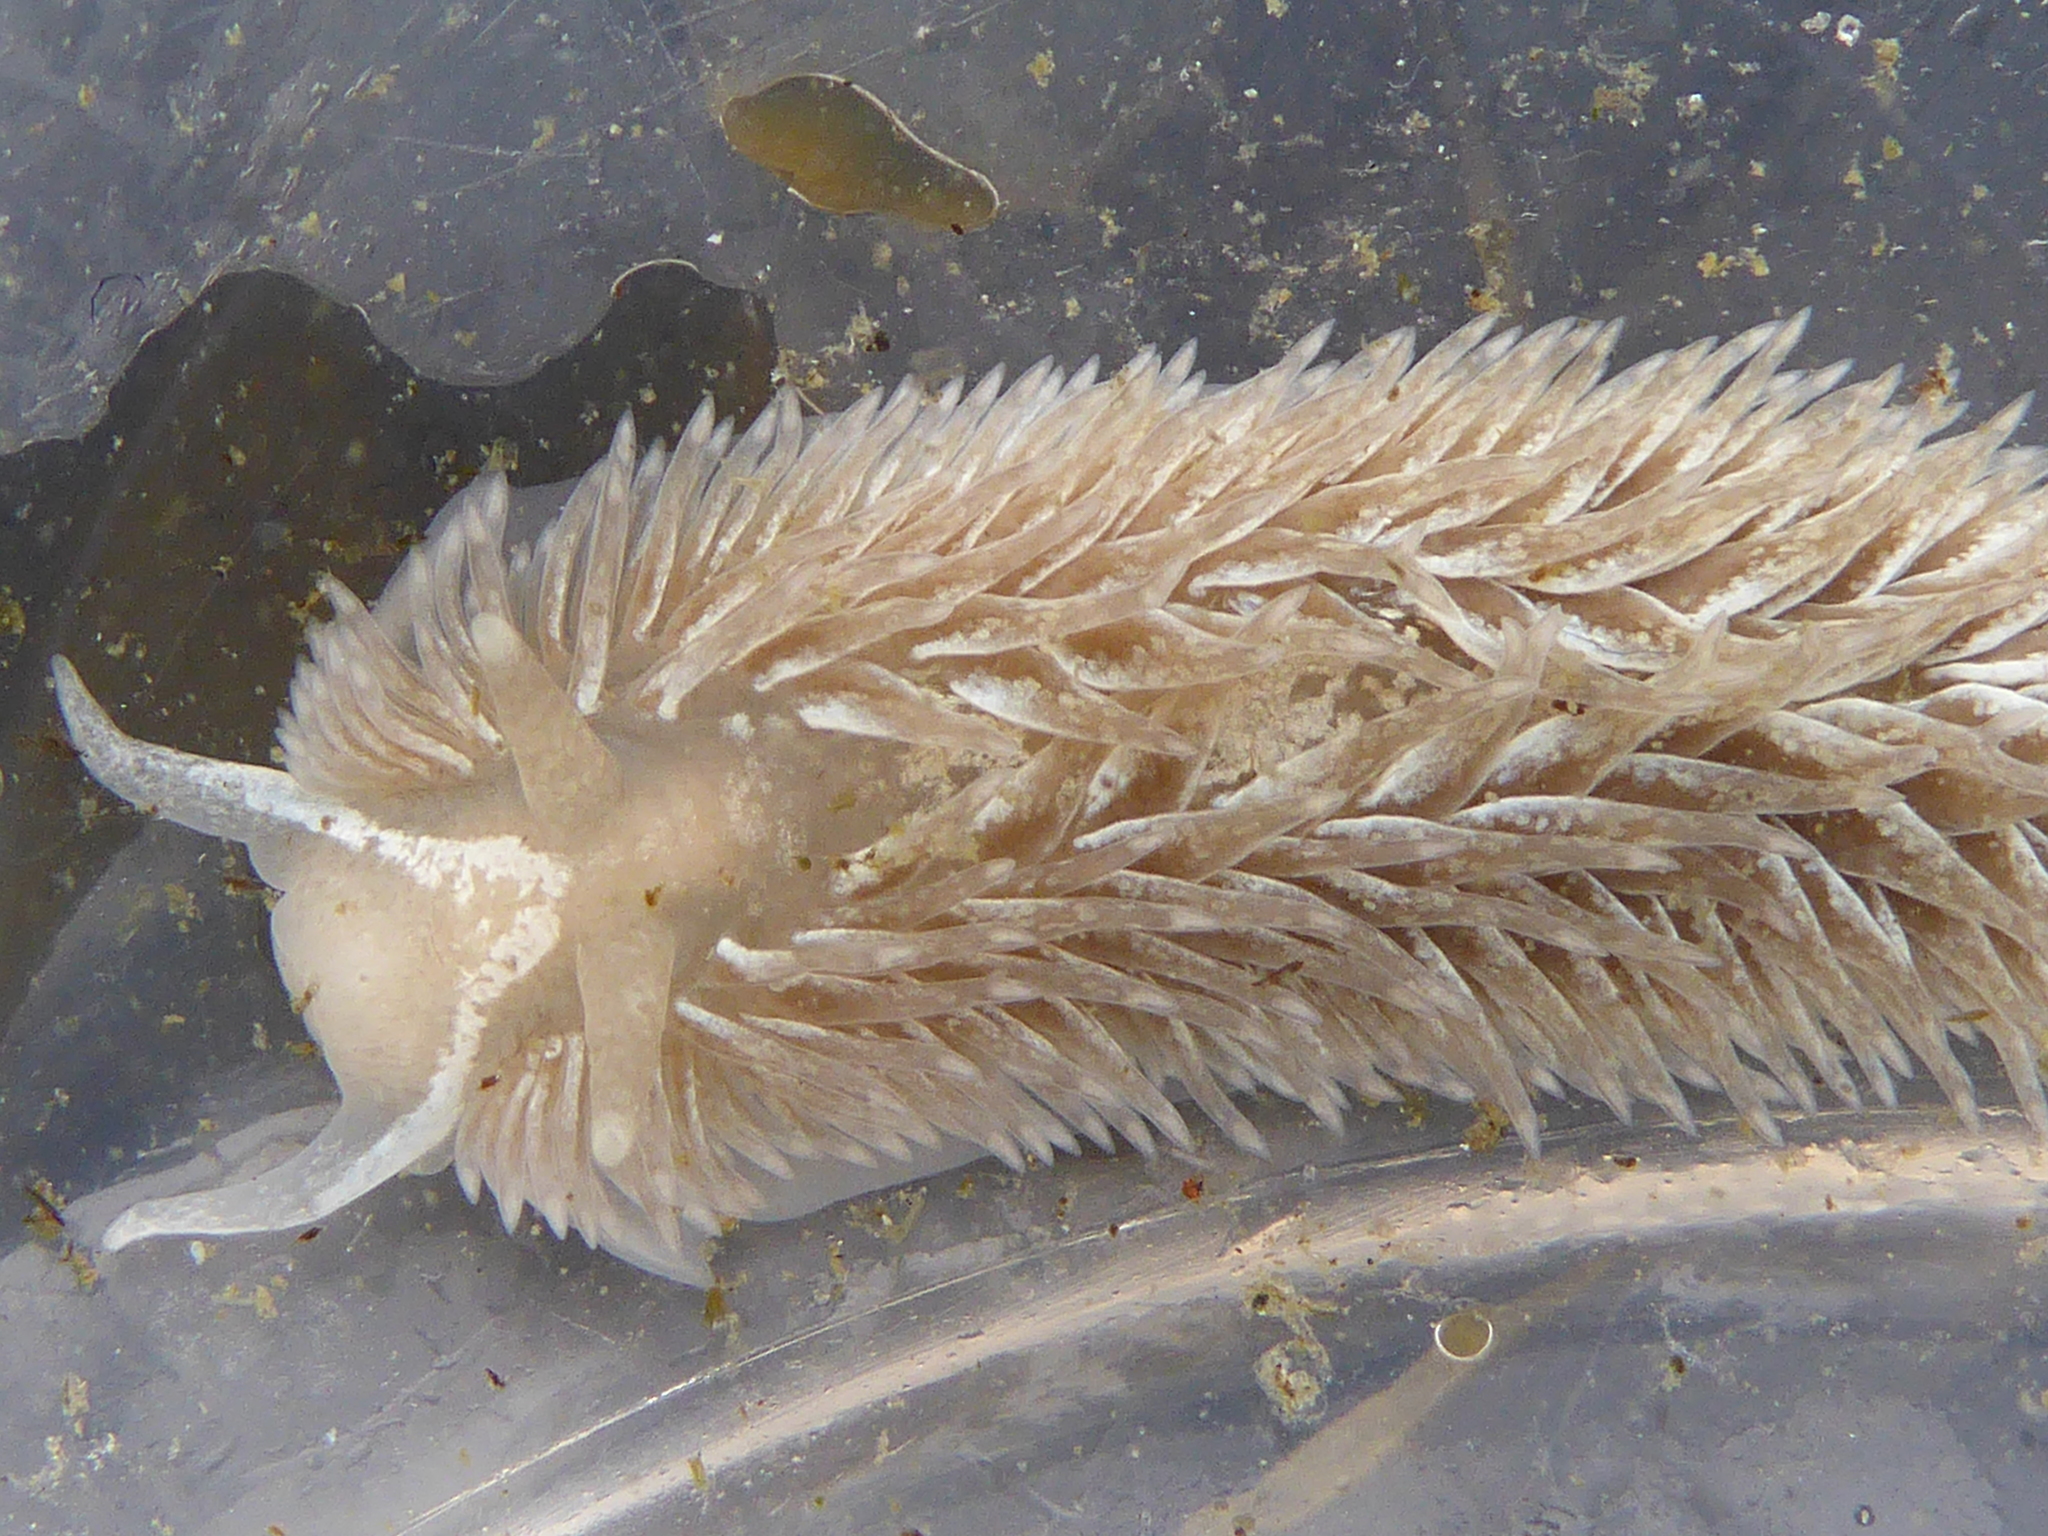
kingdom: Animalia
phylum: Mollusca
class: Gastropoda
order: Nudibranchia
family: Aeolidiidae
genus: Aeolidia
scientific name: Aeolidia loui
